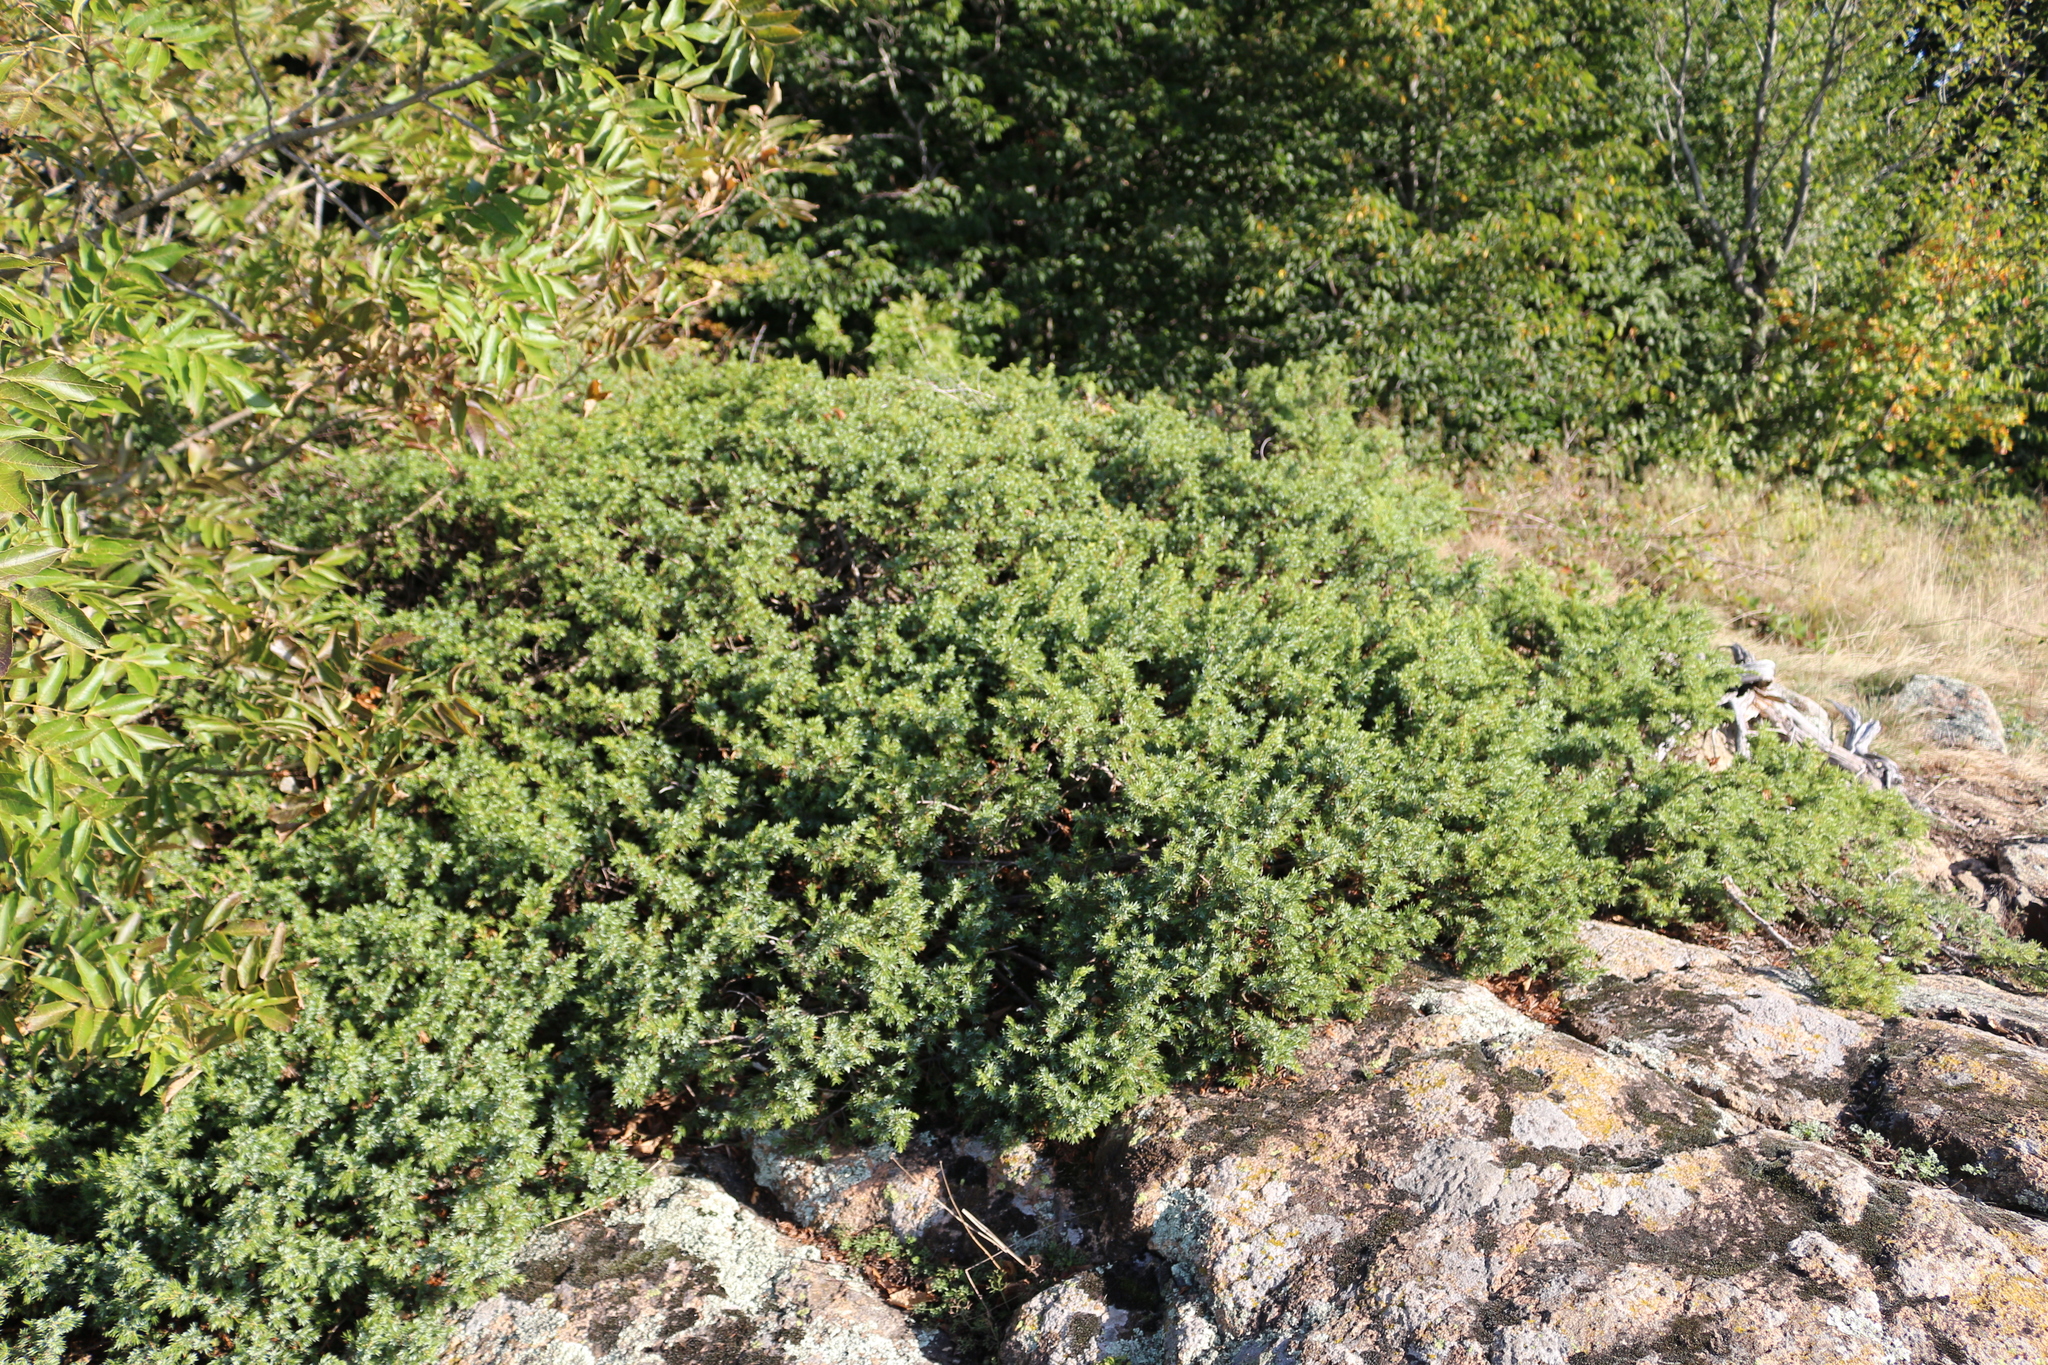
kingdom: Plantae
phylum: Tracheophyta
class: Pinopsida
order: Pinales
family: Cupressaceae
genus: Juniperus
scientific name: Juniperus communis
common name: Common juniper
